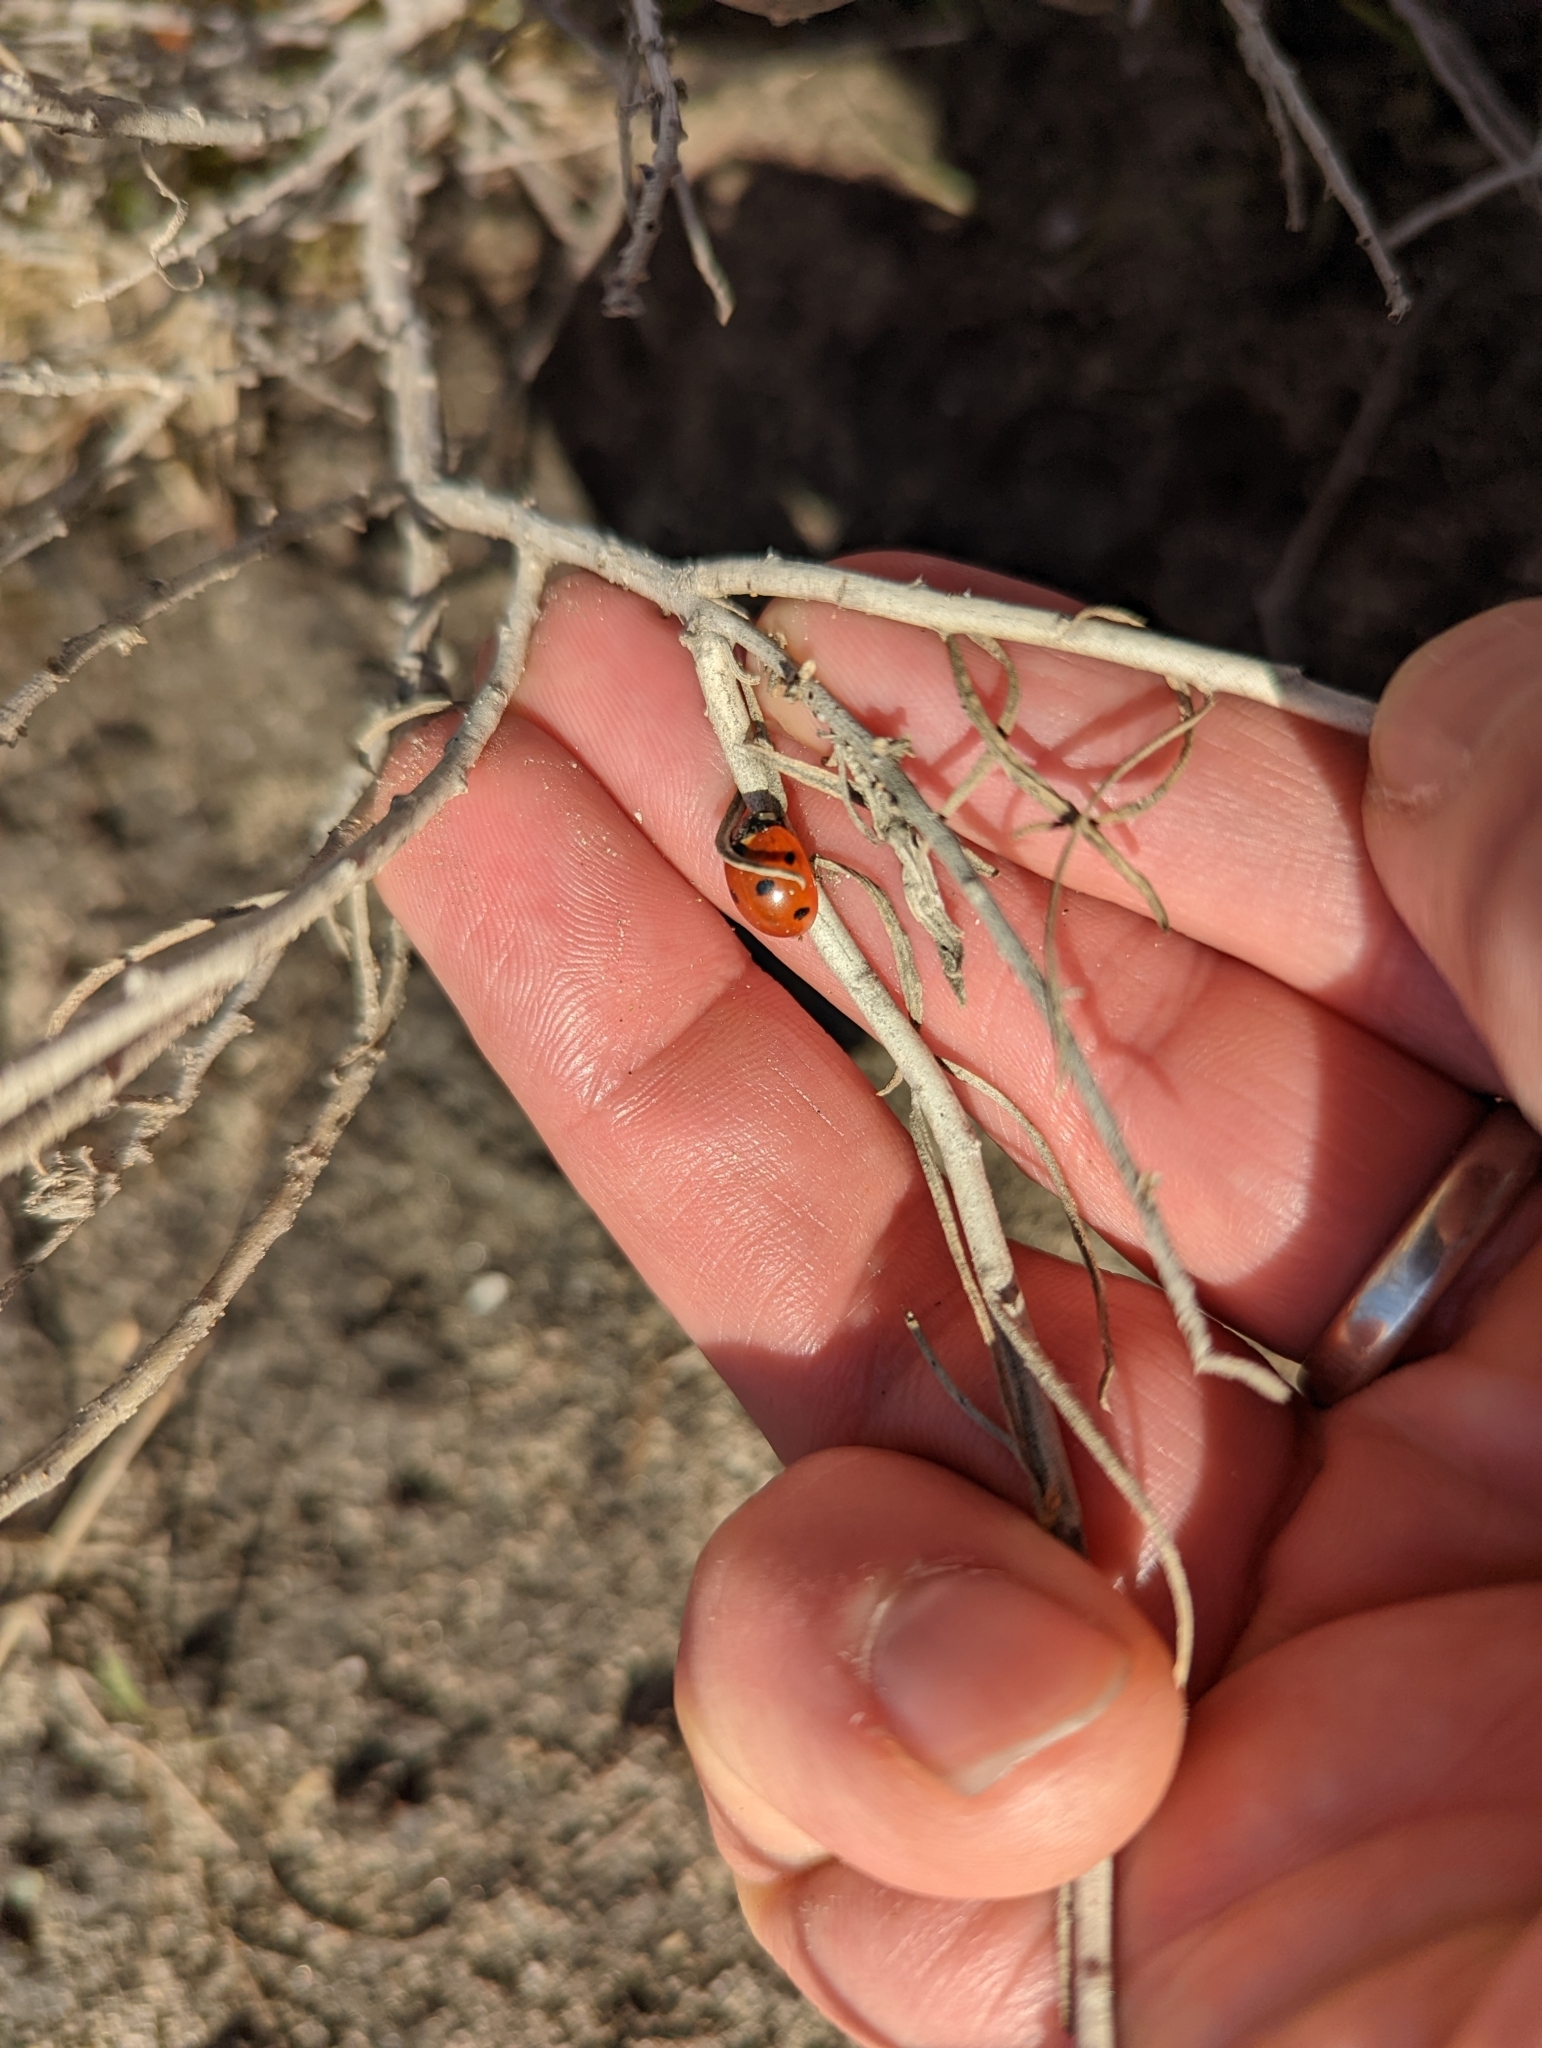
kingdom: Animalia
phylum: Arthropoda
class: Insecta
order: Coleoptera
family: Coccinellidae
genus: Coccinella
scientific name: Coccinella septempunctata
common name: Sevenspotted lady beetle
